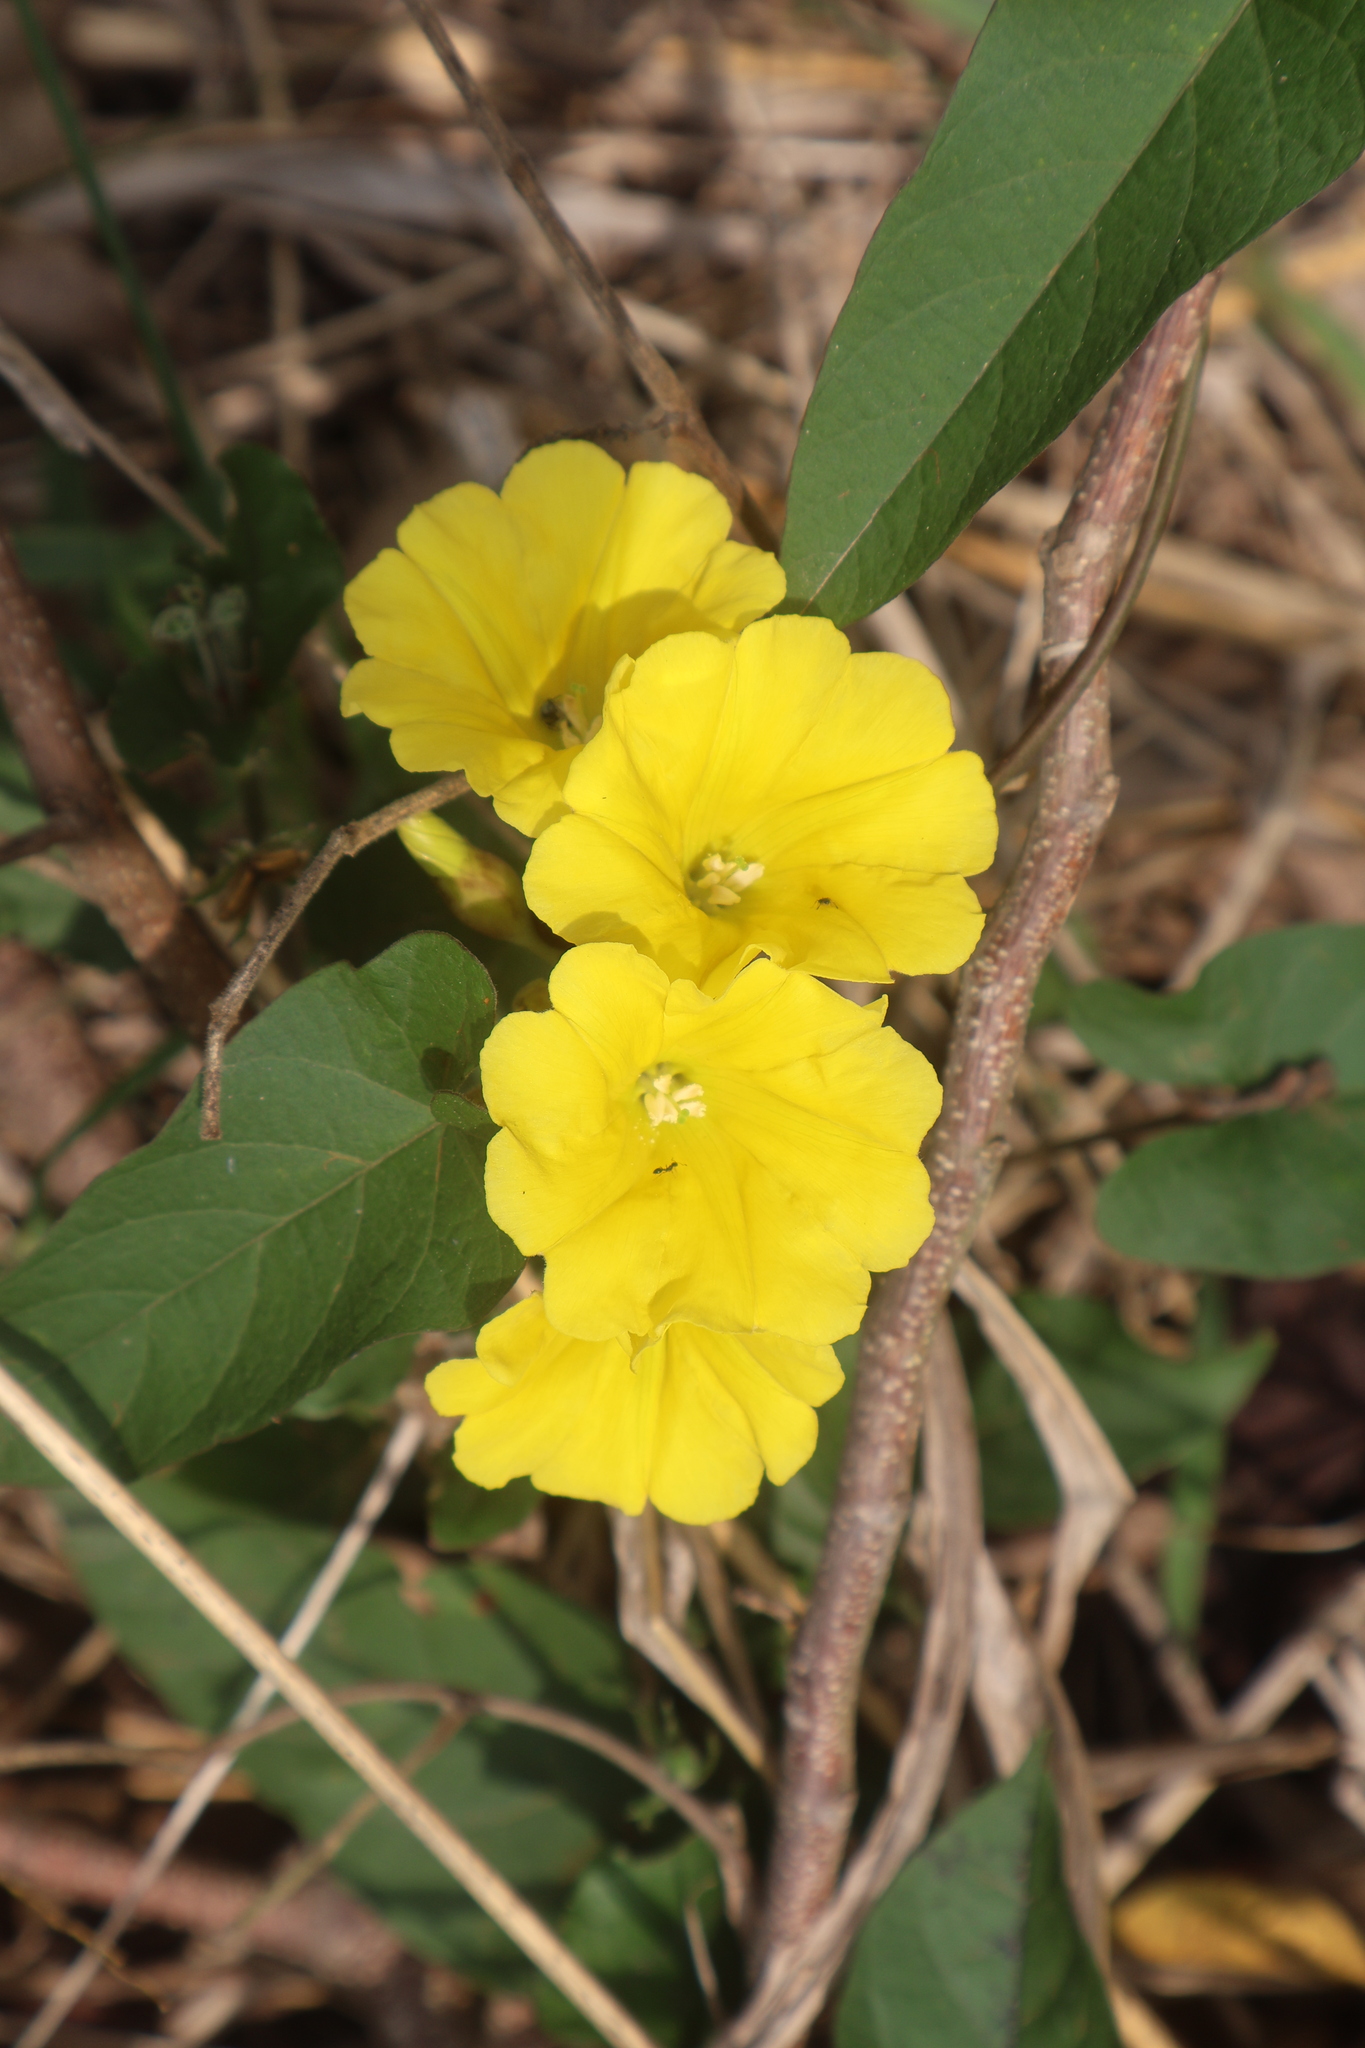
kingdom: Plantae
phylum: Tracheophyta
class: Magnoliopsida
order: Solanales
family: Convolvulaceae
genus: Camonea
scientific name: Camonea umbellata
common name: Hogvine
